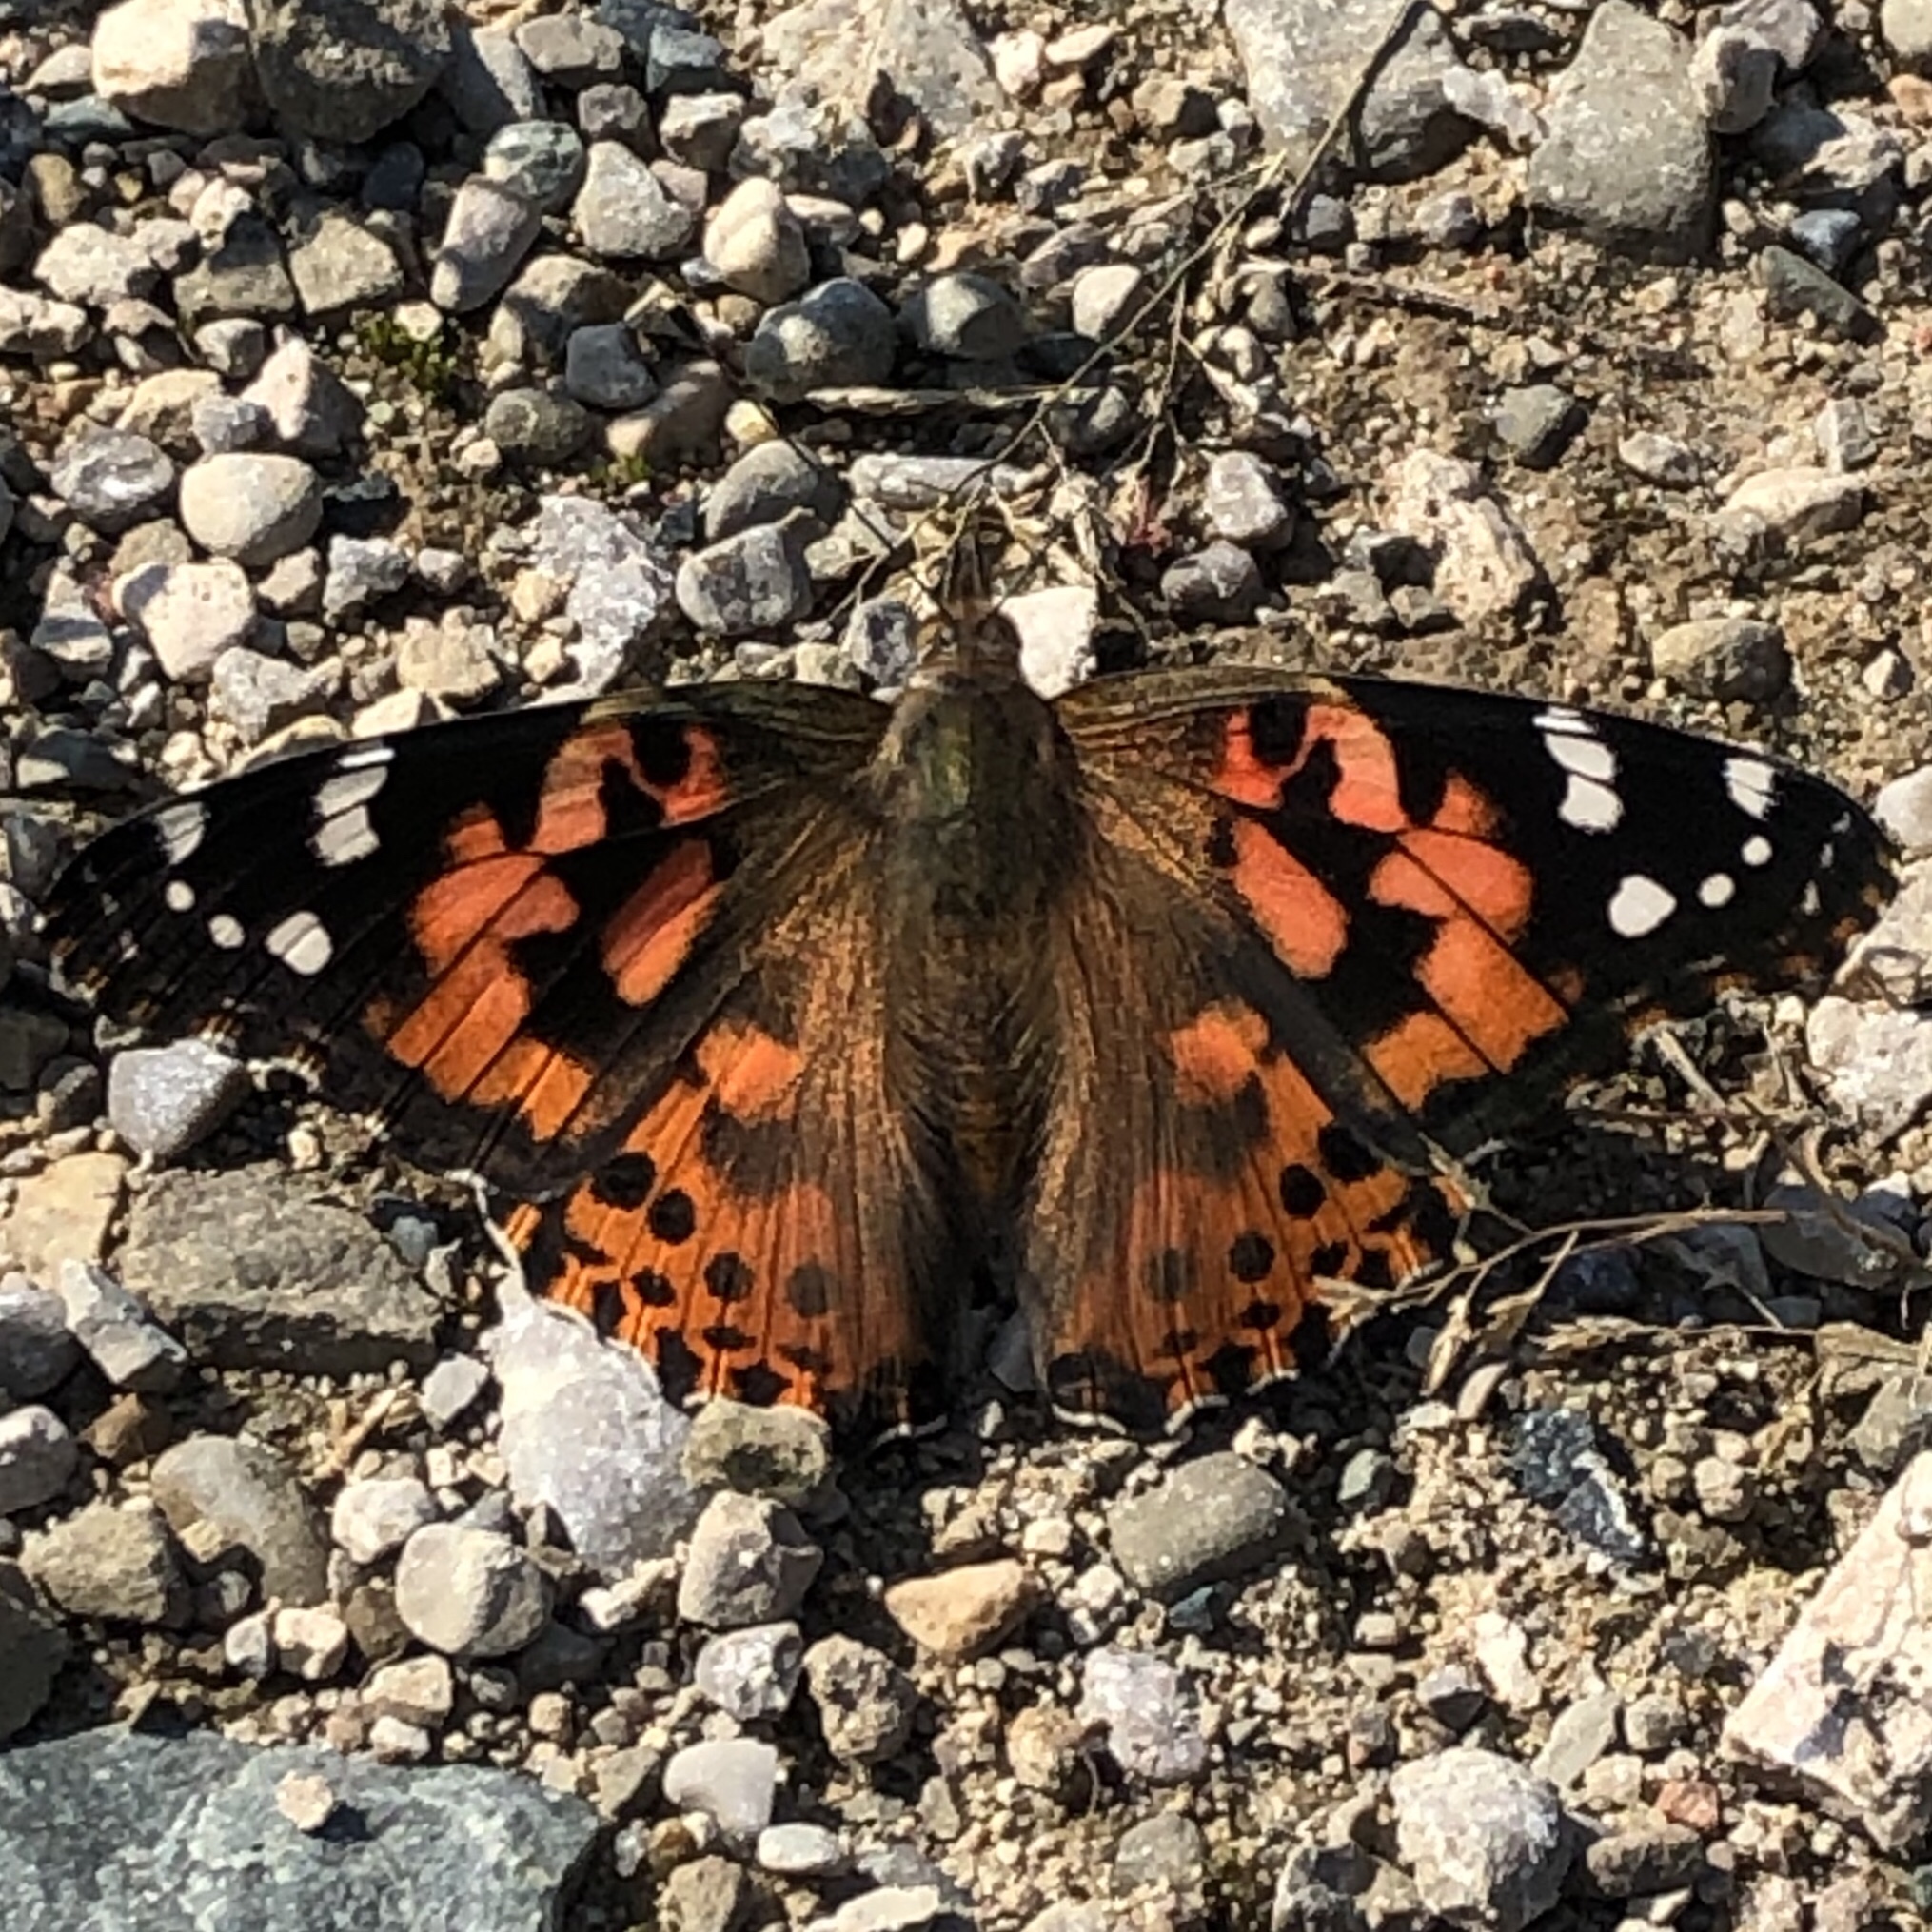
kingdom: Animalia
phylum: Arthropoda
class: Insecta
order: Lepidoptera
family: Nymphalidae
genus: Vanessa
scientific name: Vanessa cardui
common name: Painted lady
